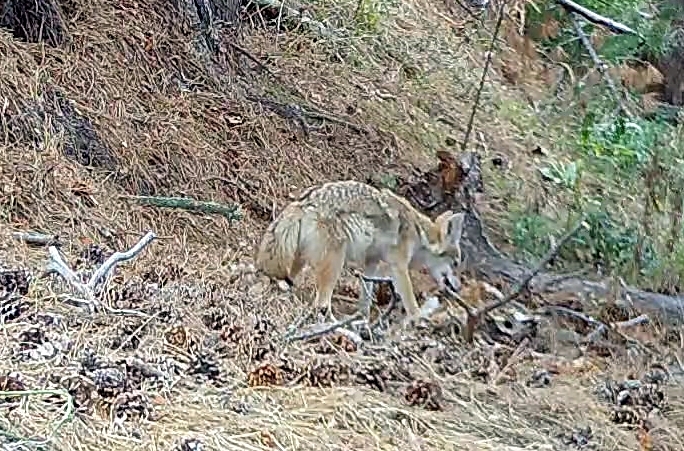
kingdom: Animalia
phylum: Chordata
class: Mammalia
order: Carnivora
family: Canidae
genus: Canis
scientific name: Canis latrans
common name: Coyote
